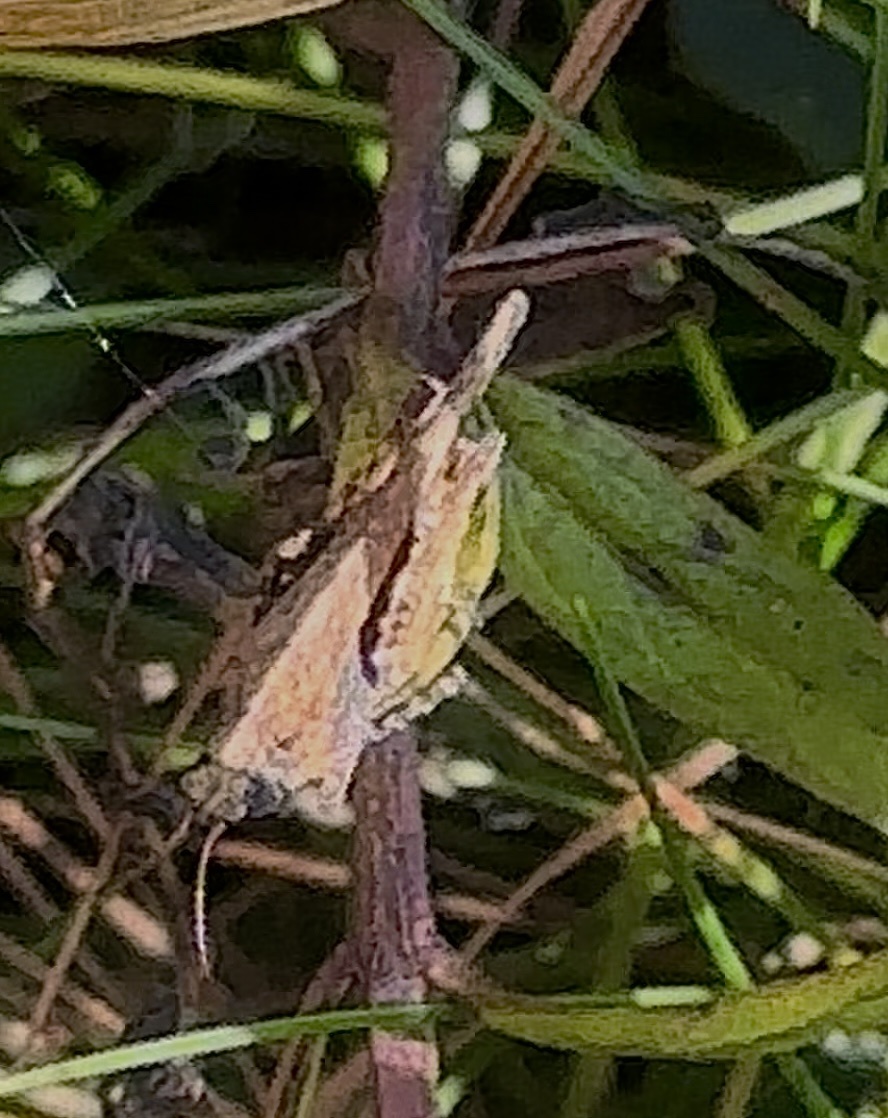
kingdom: Animalia
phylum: Arthropoda
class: Insecta
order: Orthoptera
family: Tetrigidae
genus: Tetrix
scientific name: Tetrix subulata
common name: Slender ground-hopper
